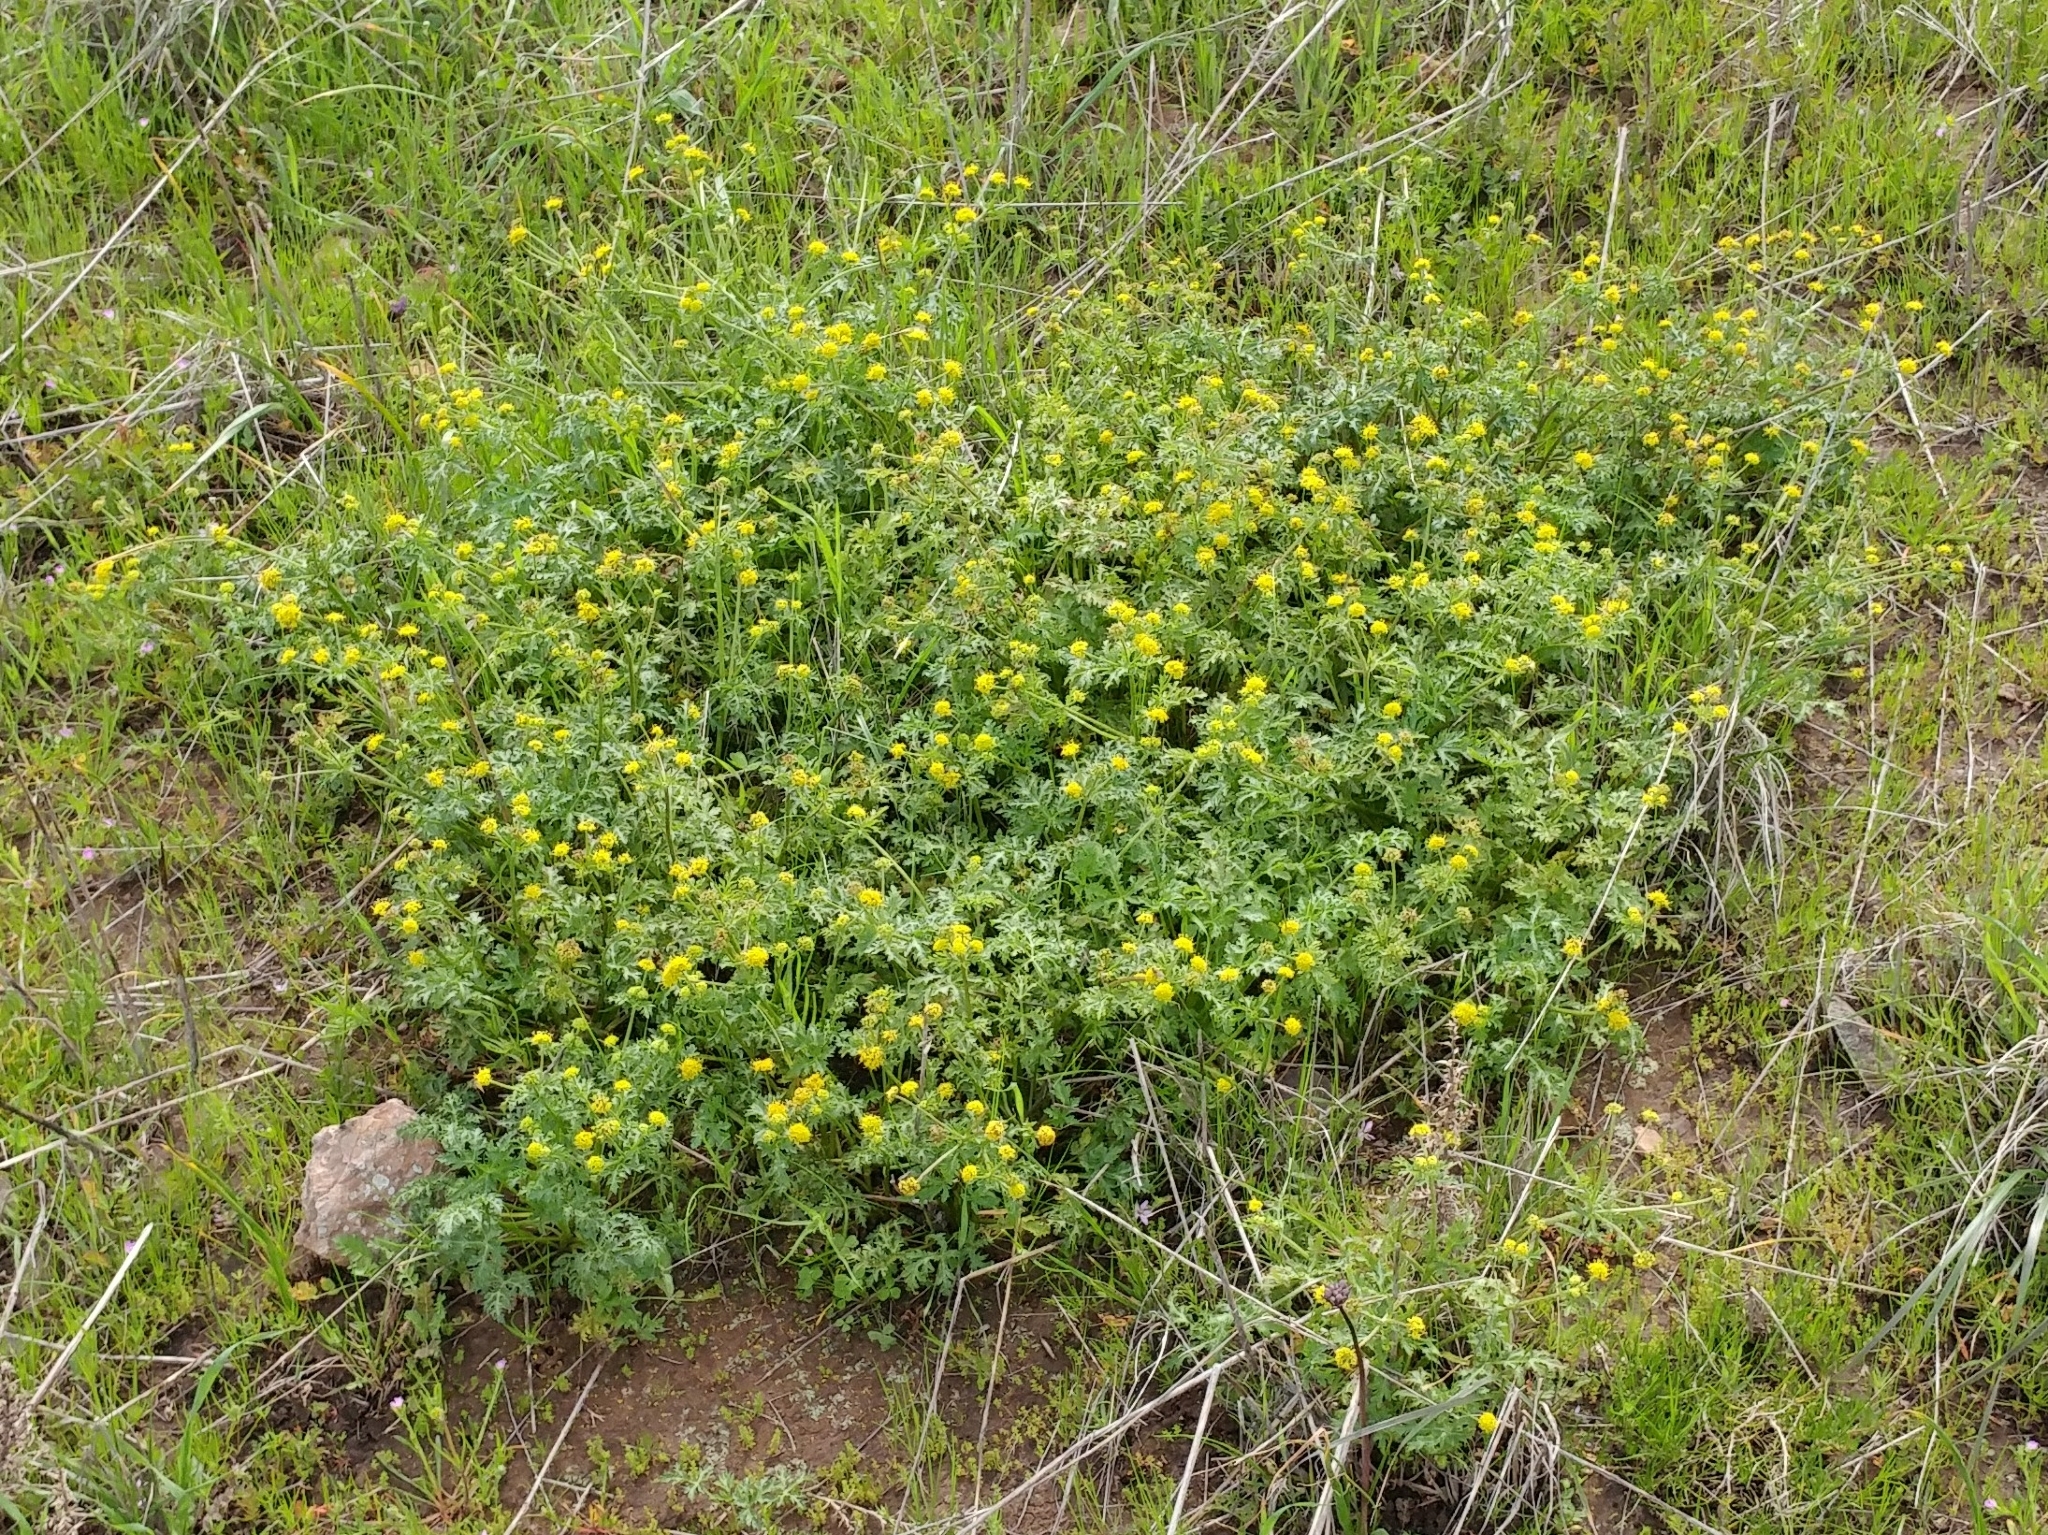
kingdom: Plantae
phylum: Tracheophyta
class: Magnoliopsida
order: Apiales
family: Apiaceae
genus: Sanicula
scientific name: Sanicula arguta
